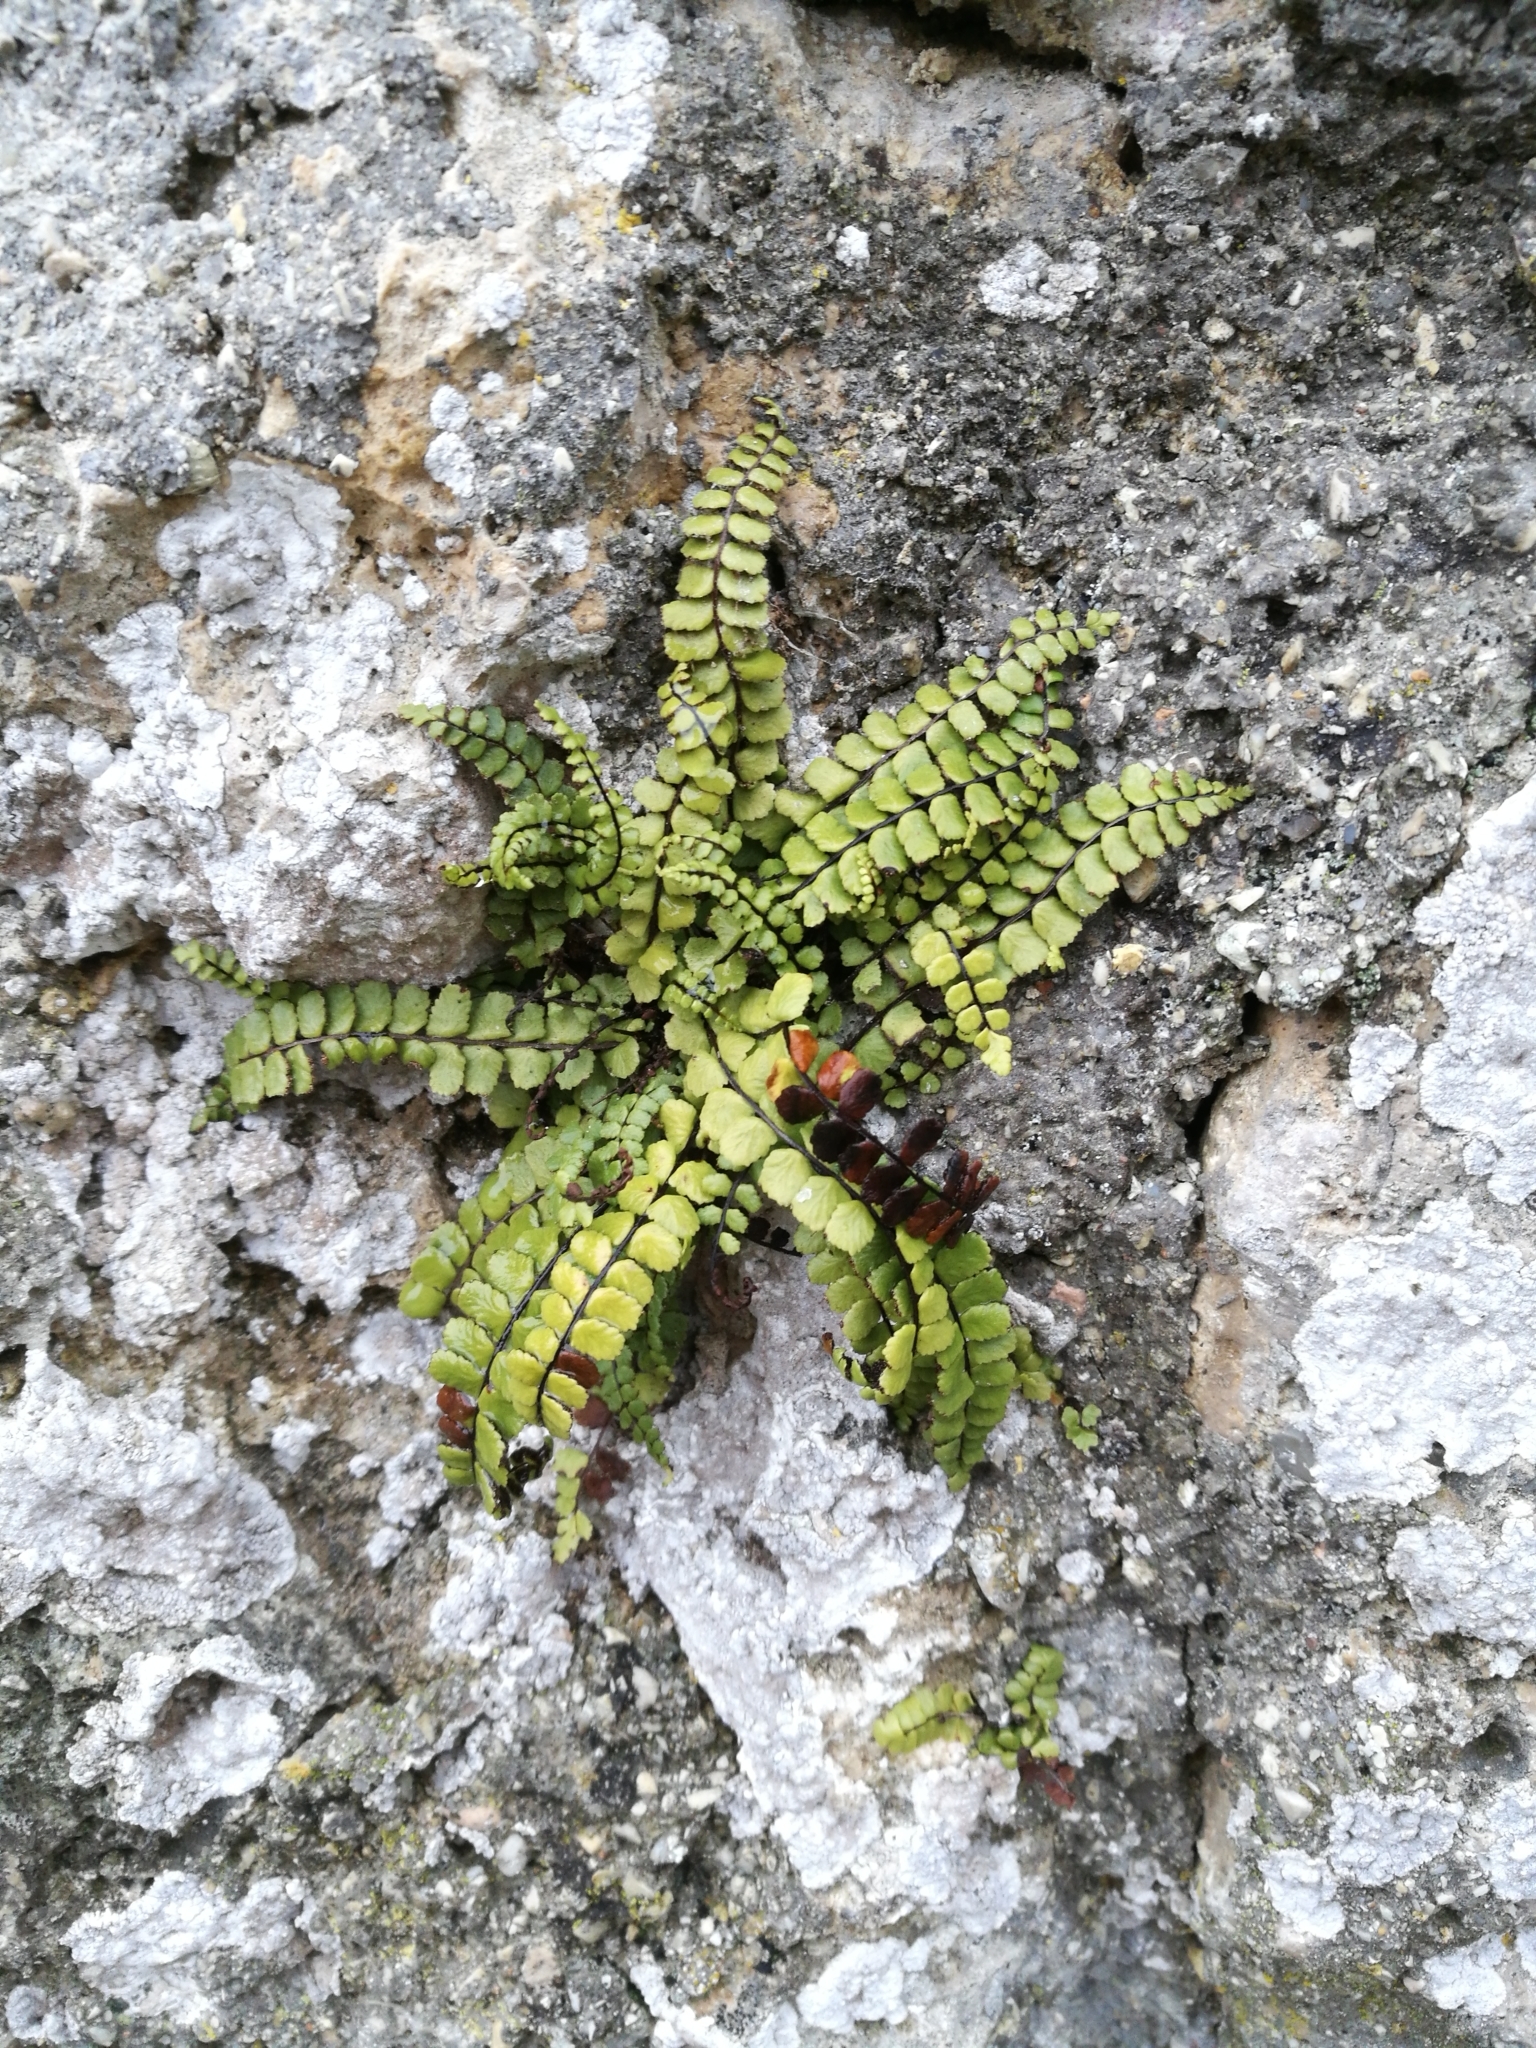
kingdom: Plantae
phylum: Tracheophyta
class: Polypodiopsida
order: Polypodiales
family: Aspleniaceae
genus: Asplenium
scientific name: Asplenium trichomanes
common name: Maidenhair spleenwort
